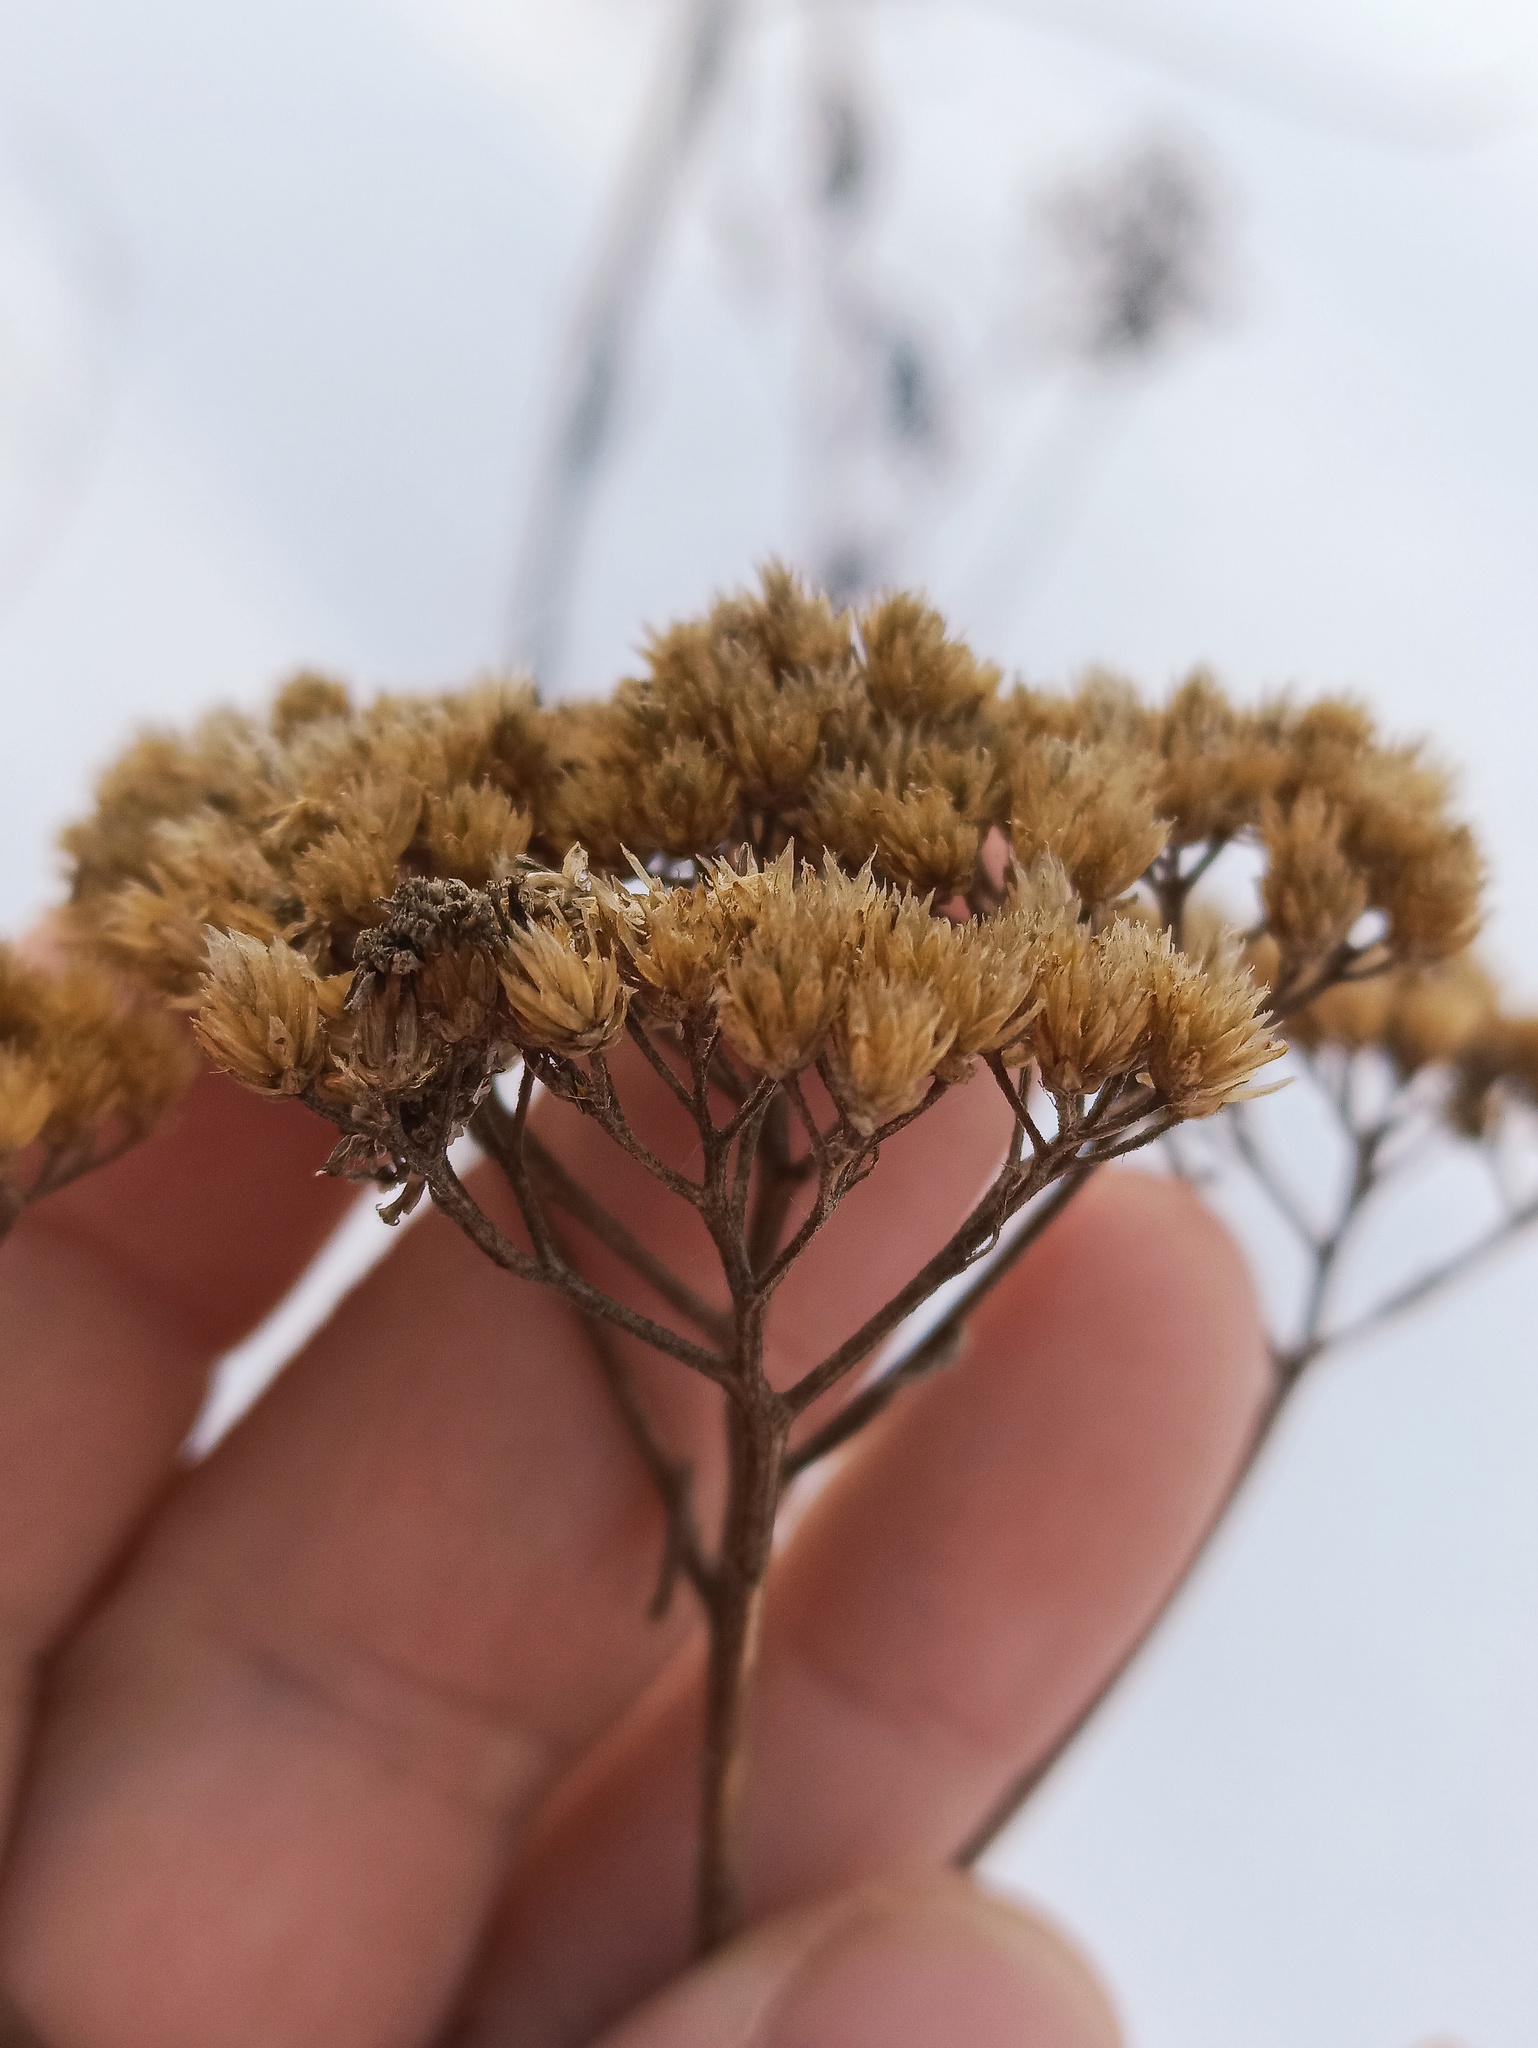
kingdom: Plantae
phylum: Tracheophyta
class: Magnoliopsida
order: Asterales
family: Asteraceae
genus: Achillea
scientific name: Achillea millefolium
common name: Yarrow
